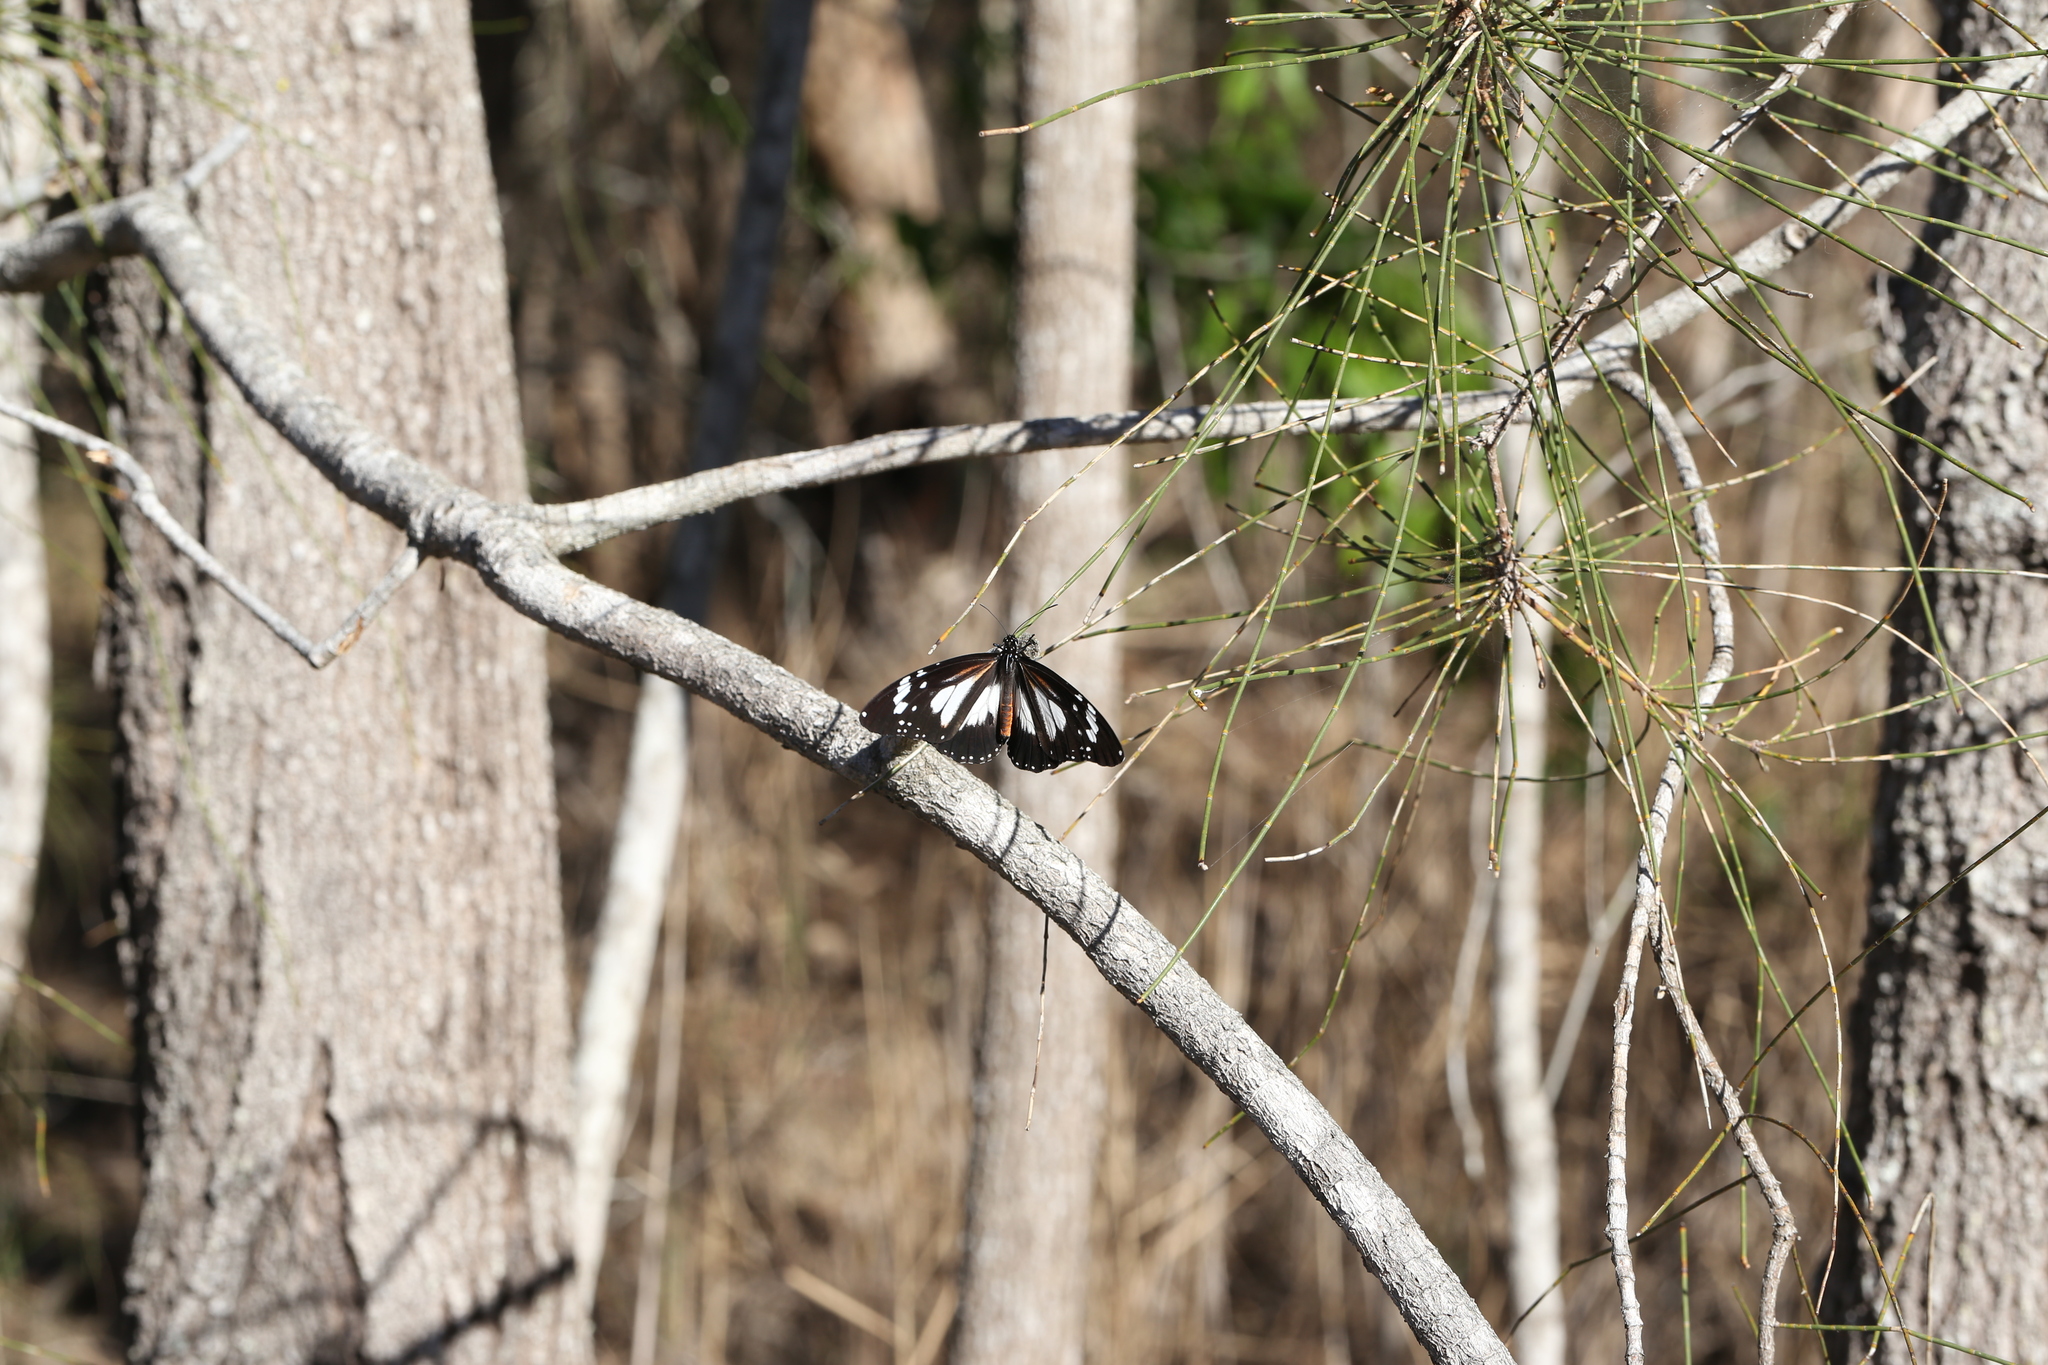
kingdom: Animalia
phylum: Arthropoda
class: Insecta
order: Lepidoptera
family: Nymphalidae
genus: Danaus
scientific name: Danaus affinis
